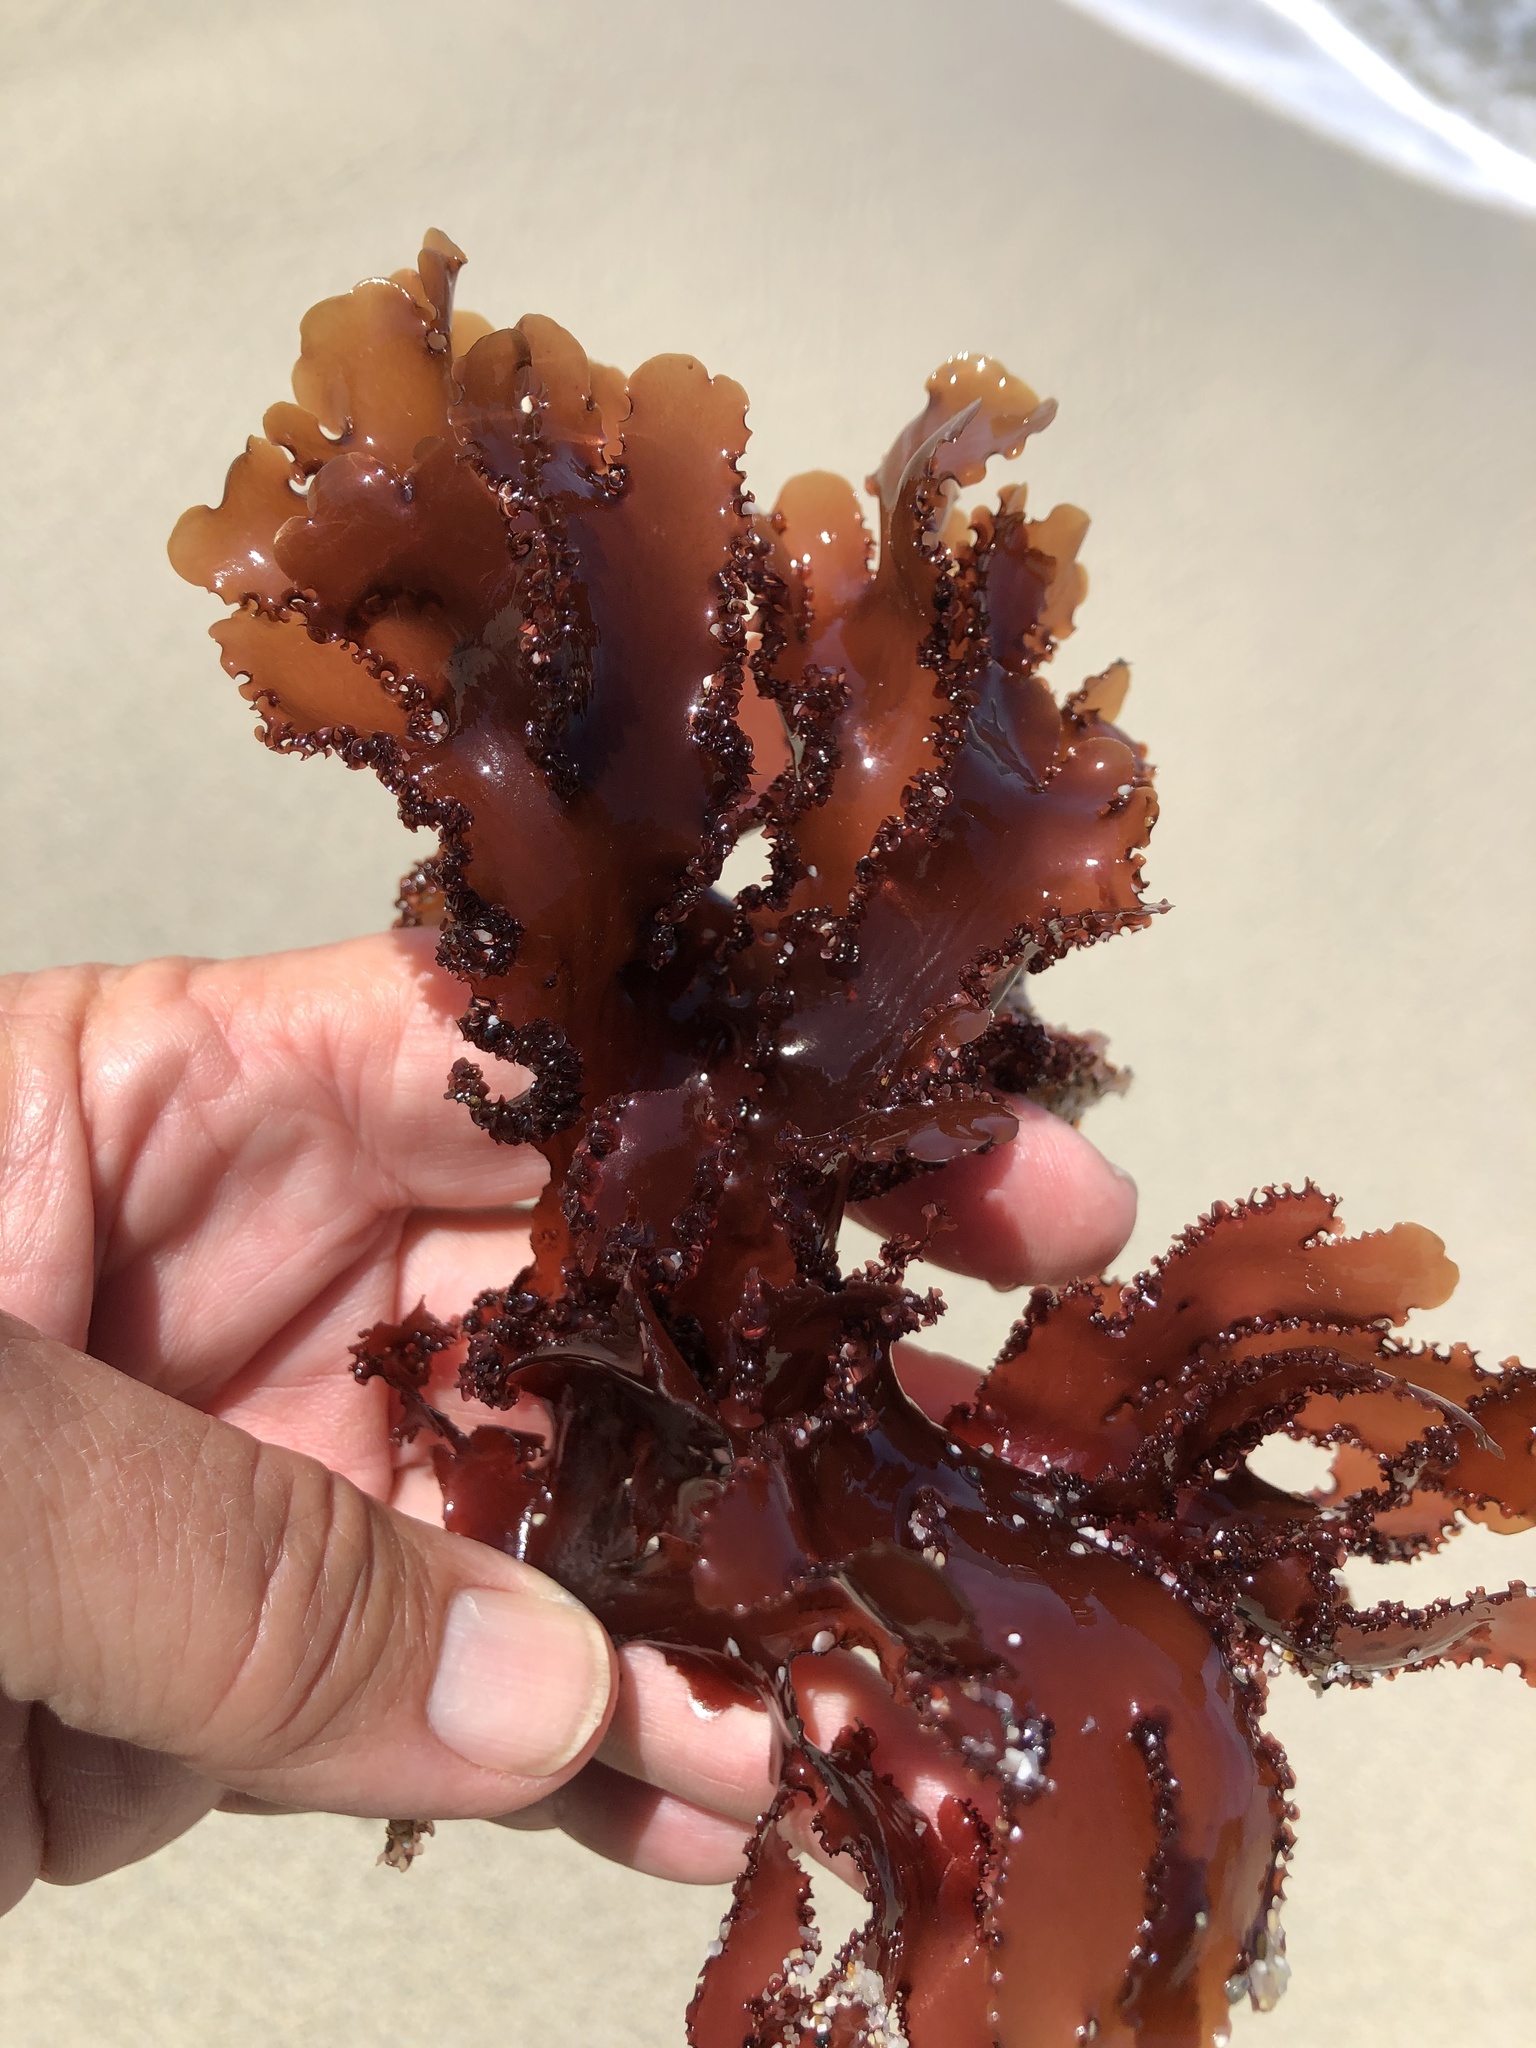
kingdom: Plantae
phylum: Rhodophyta
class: Florideophyceae
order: Ceramiales
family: Delesseriaceae
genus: Cryptopleura
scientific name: Cryptopleura ruprechtiana
